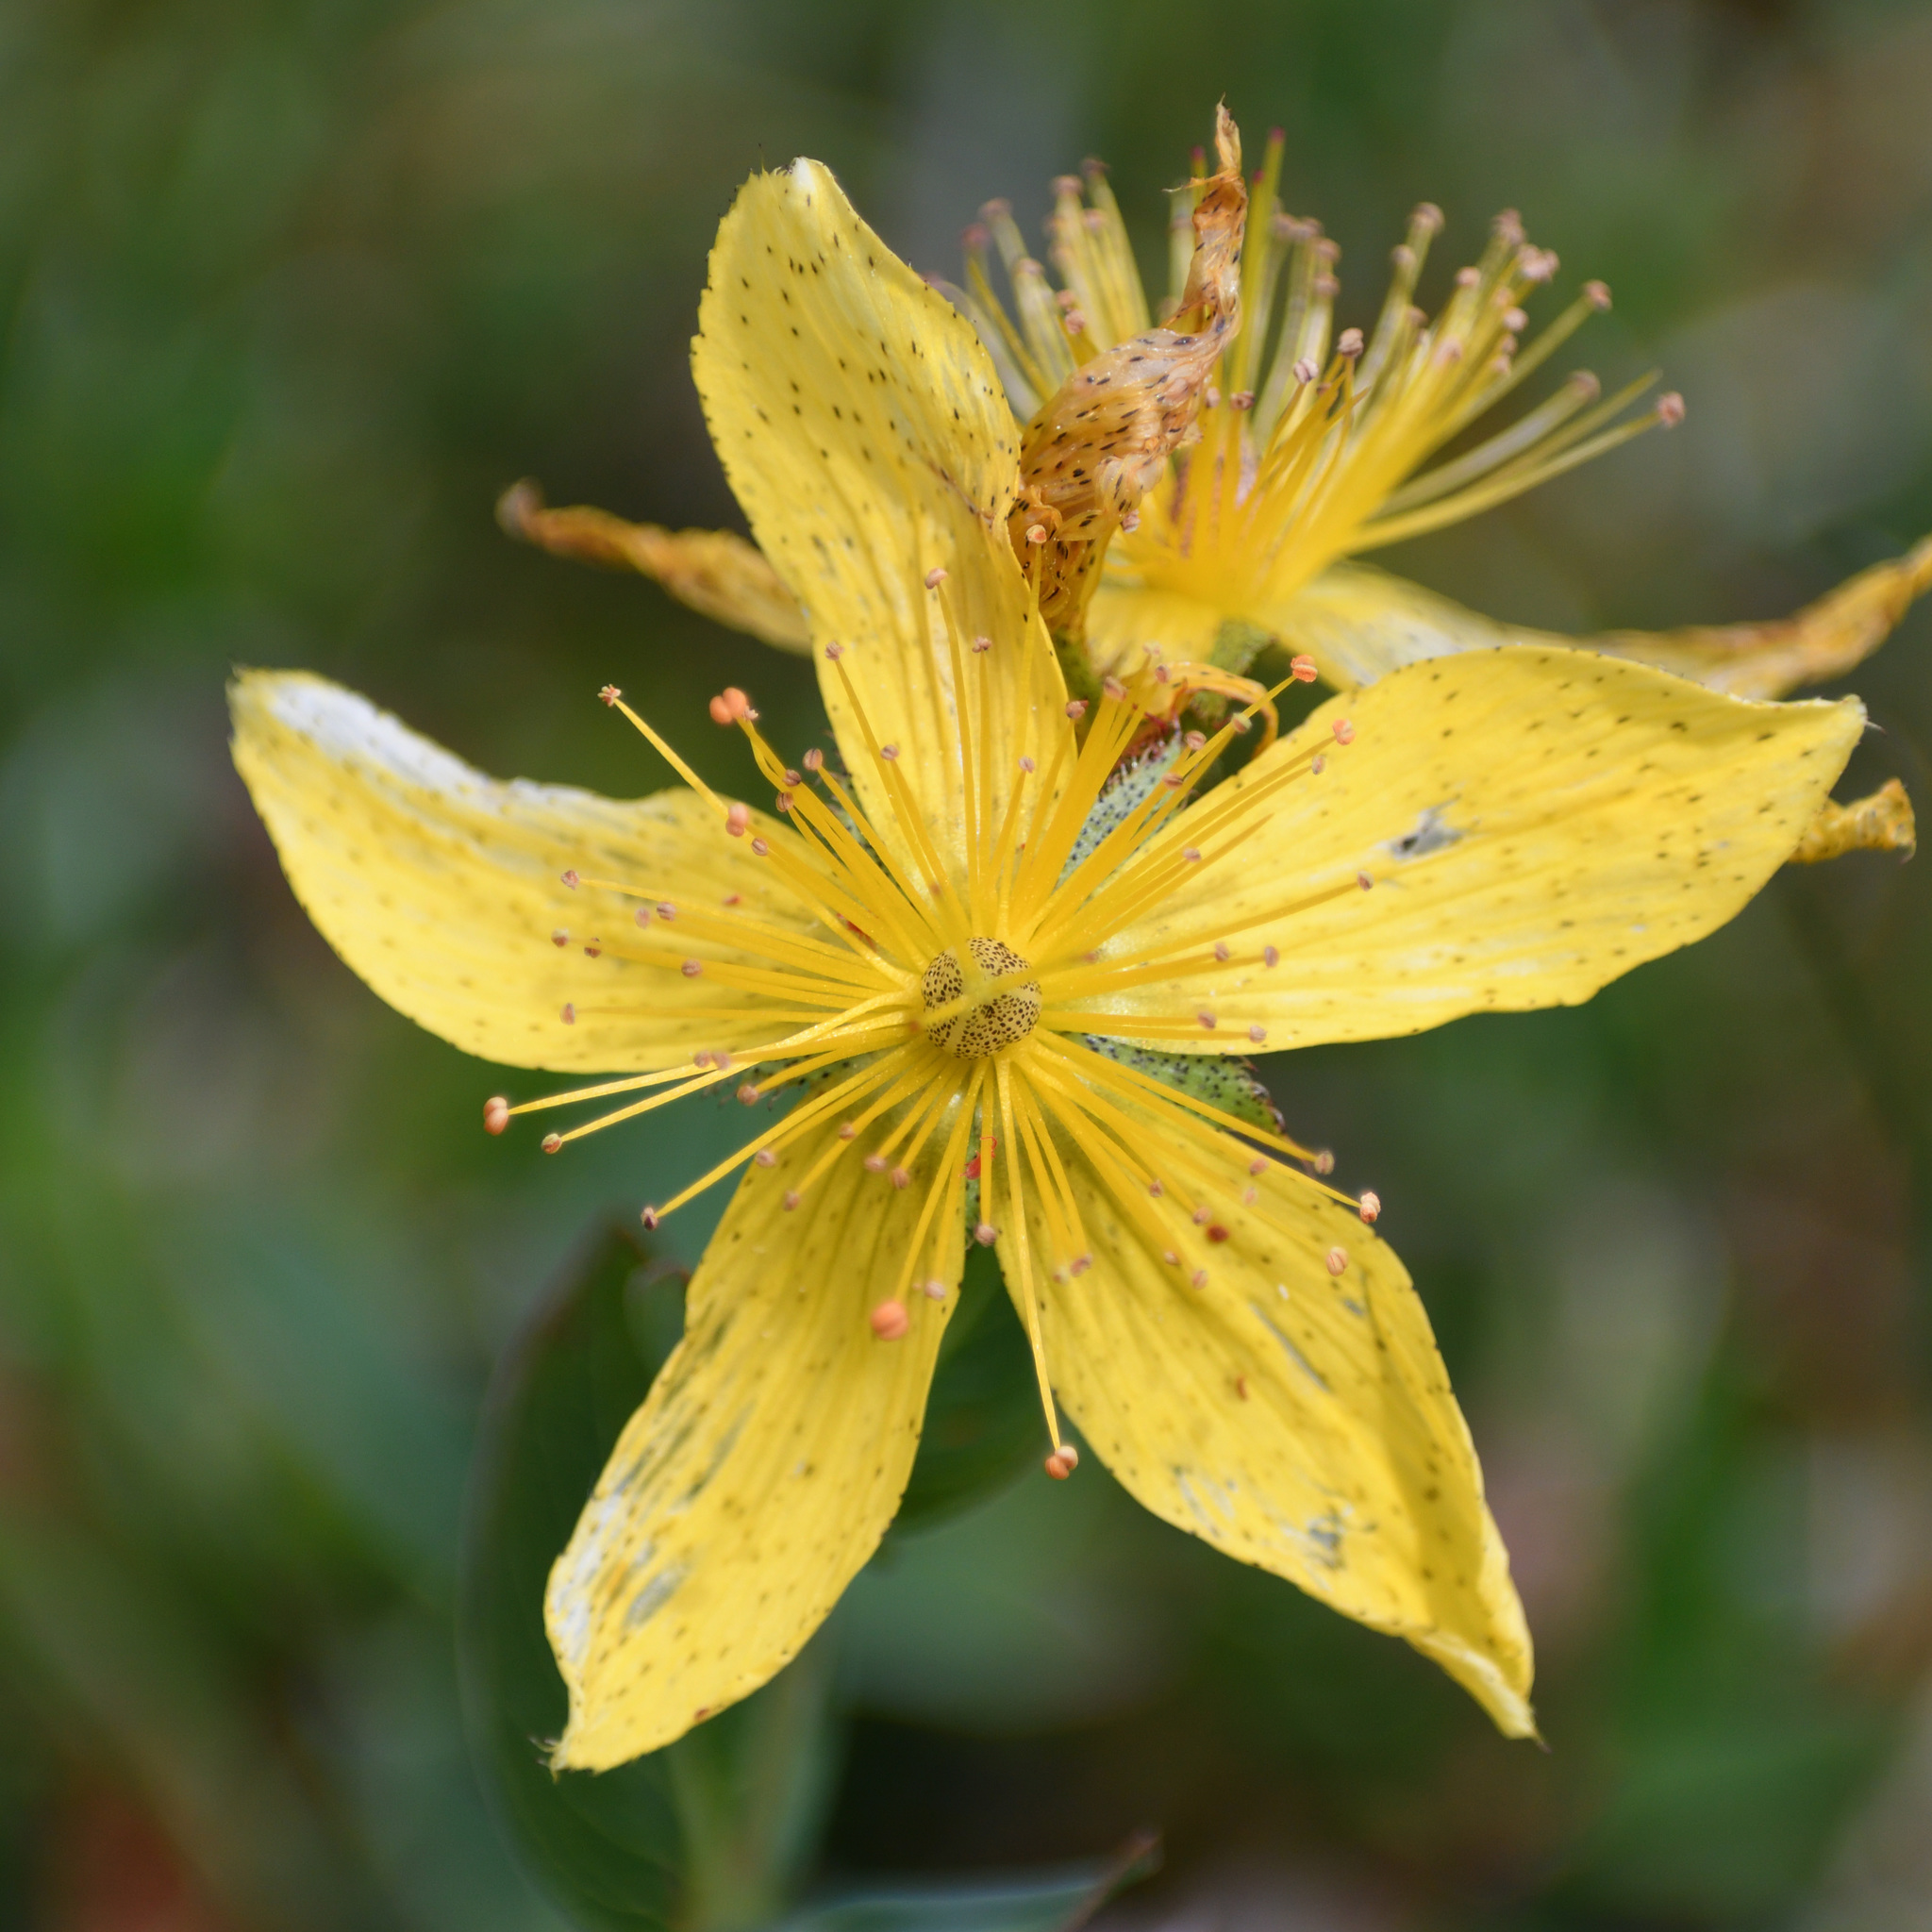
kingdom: Plantae
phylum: Tracheophyta
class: Magnoliopsida
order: Malpighiales
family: Hypericaceae
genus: Hypericum
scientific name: Hypericum richeri
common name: Alpine st john's-wort
